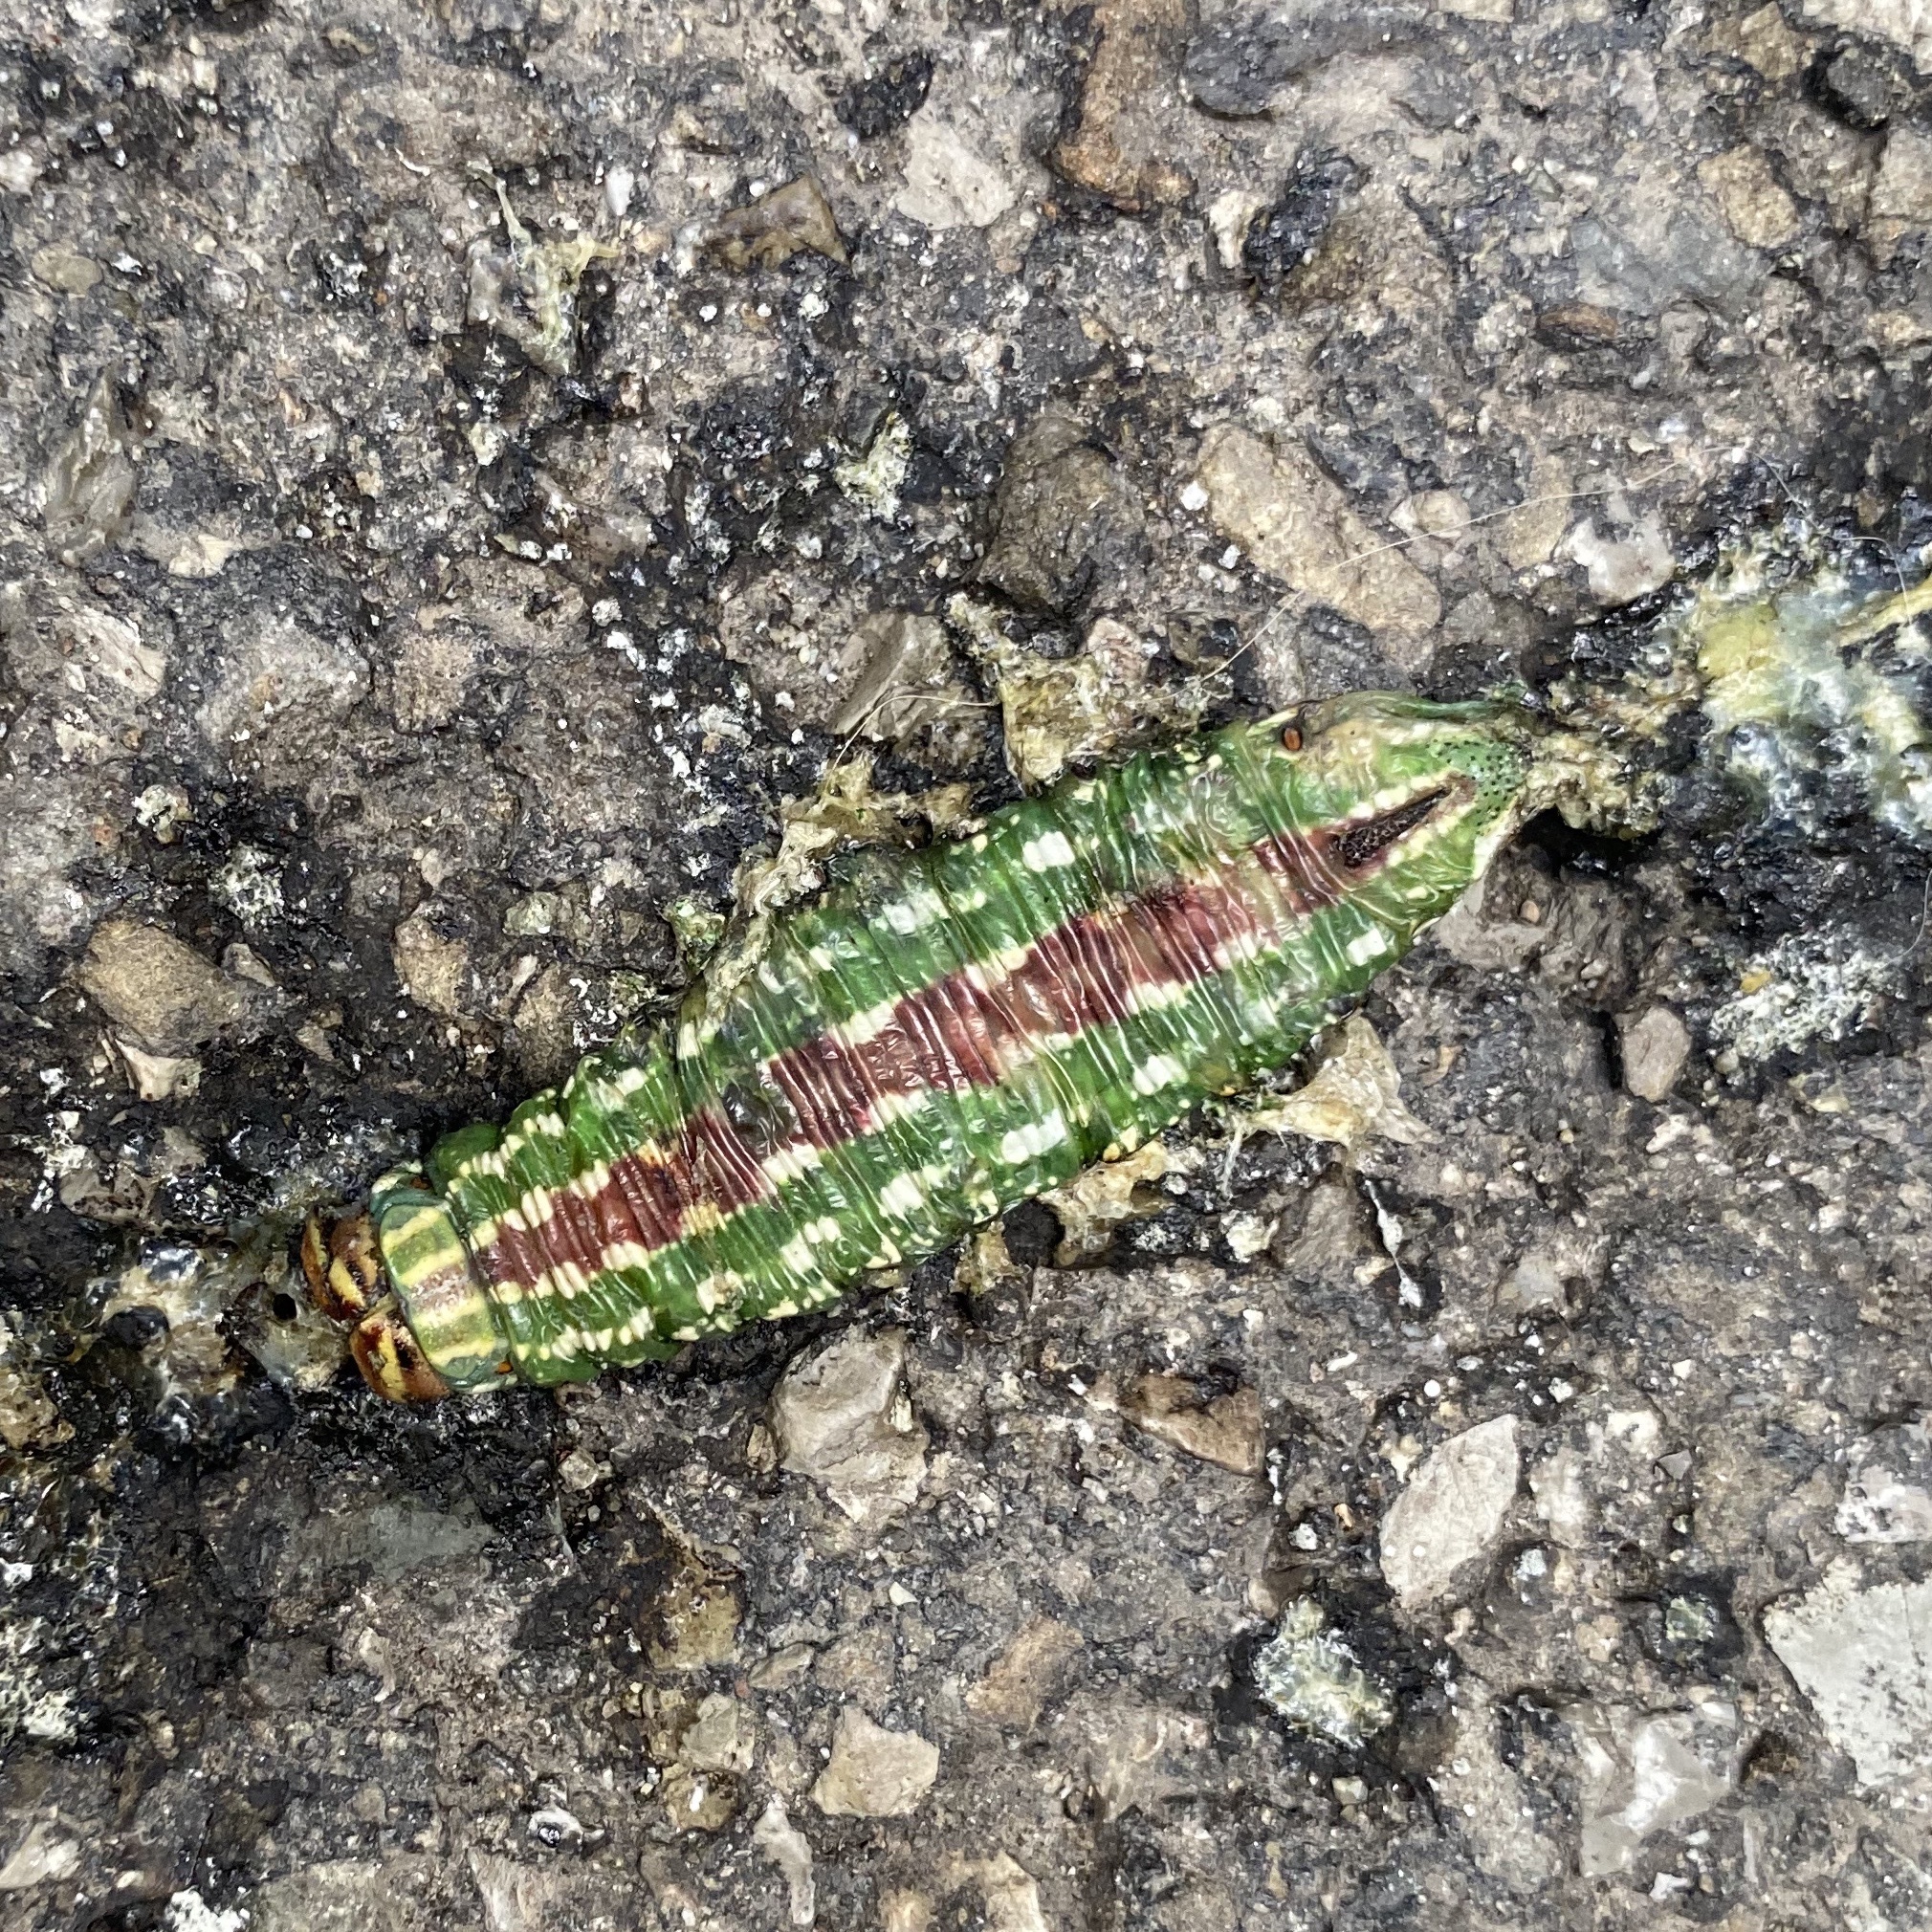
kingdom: Animalia
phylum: Arthropoda
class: Insecta
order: Lepidoptera
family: Sphingidae
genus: Sphinx
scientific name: Sphinx pinastri
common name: Pine hawk-moth
